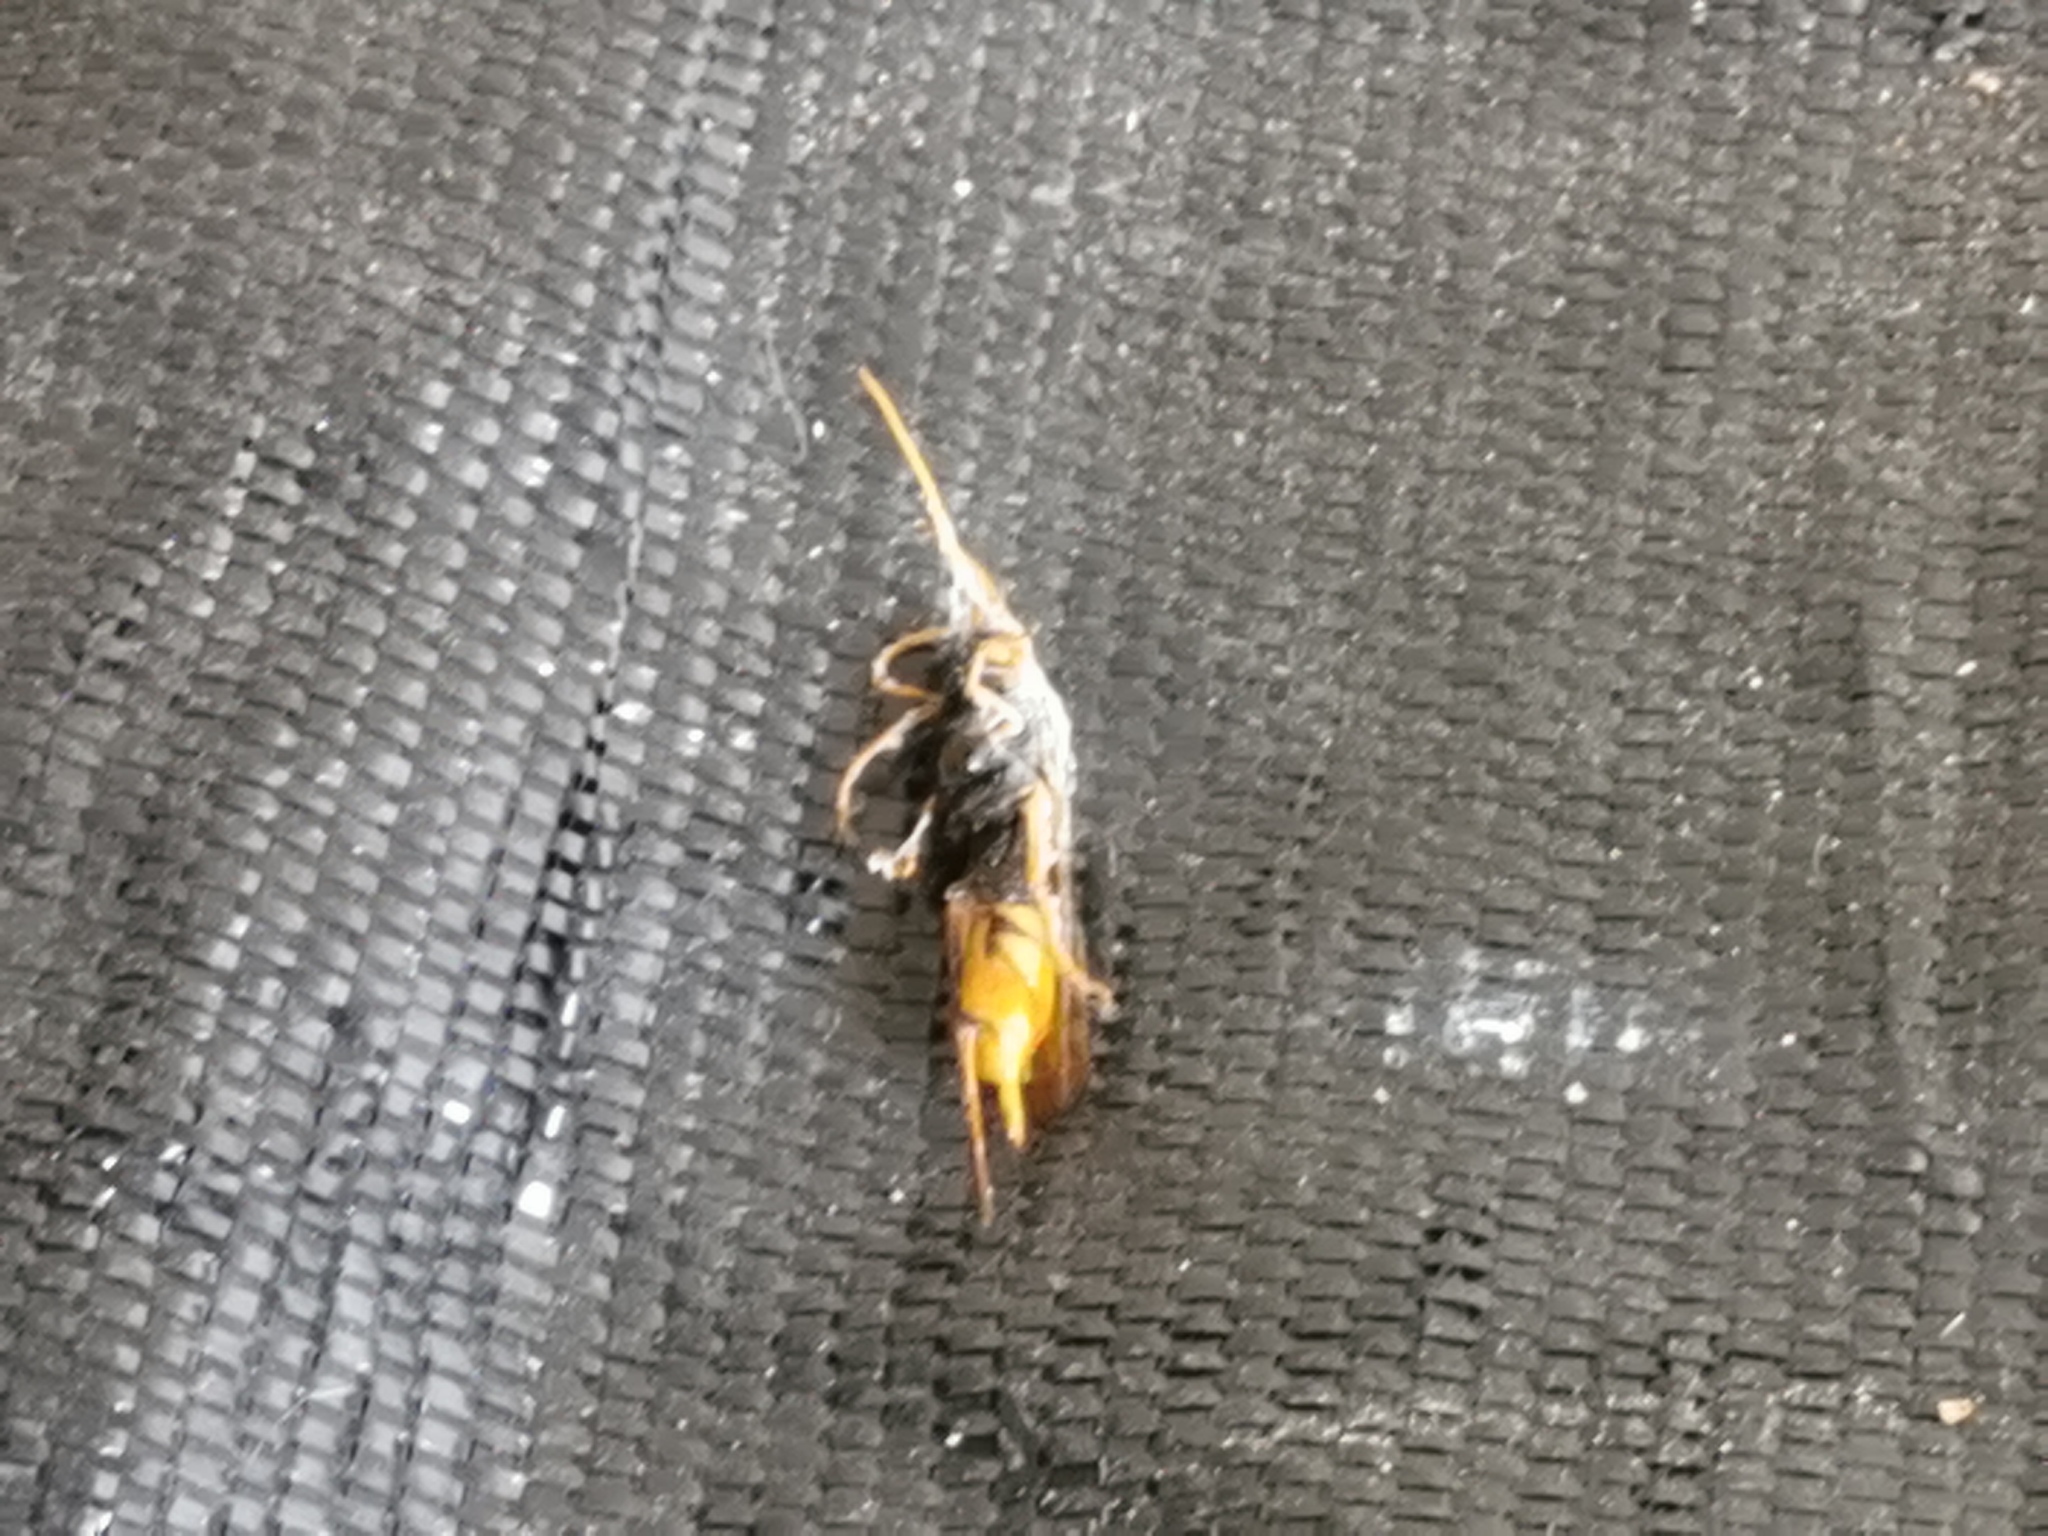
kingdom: Animalia
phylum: Arthropoda
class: Insecta
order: Hymenoptera
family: Siricidae
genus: Urocerus
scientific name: Urocerus gigas
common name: Giant woodwasp
